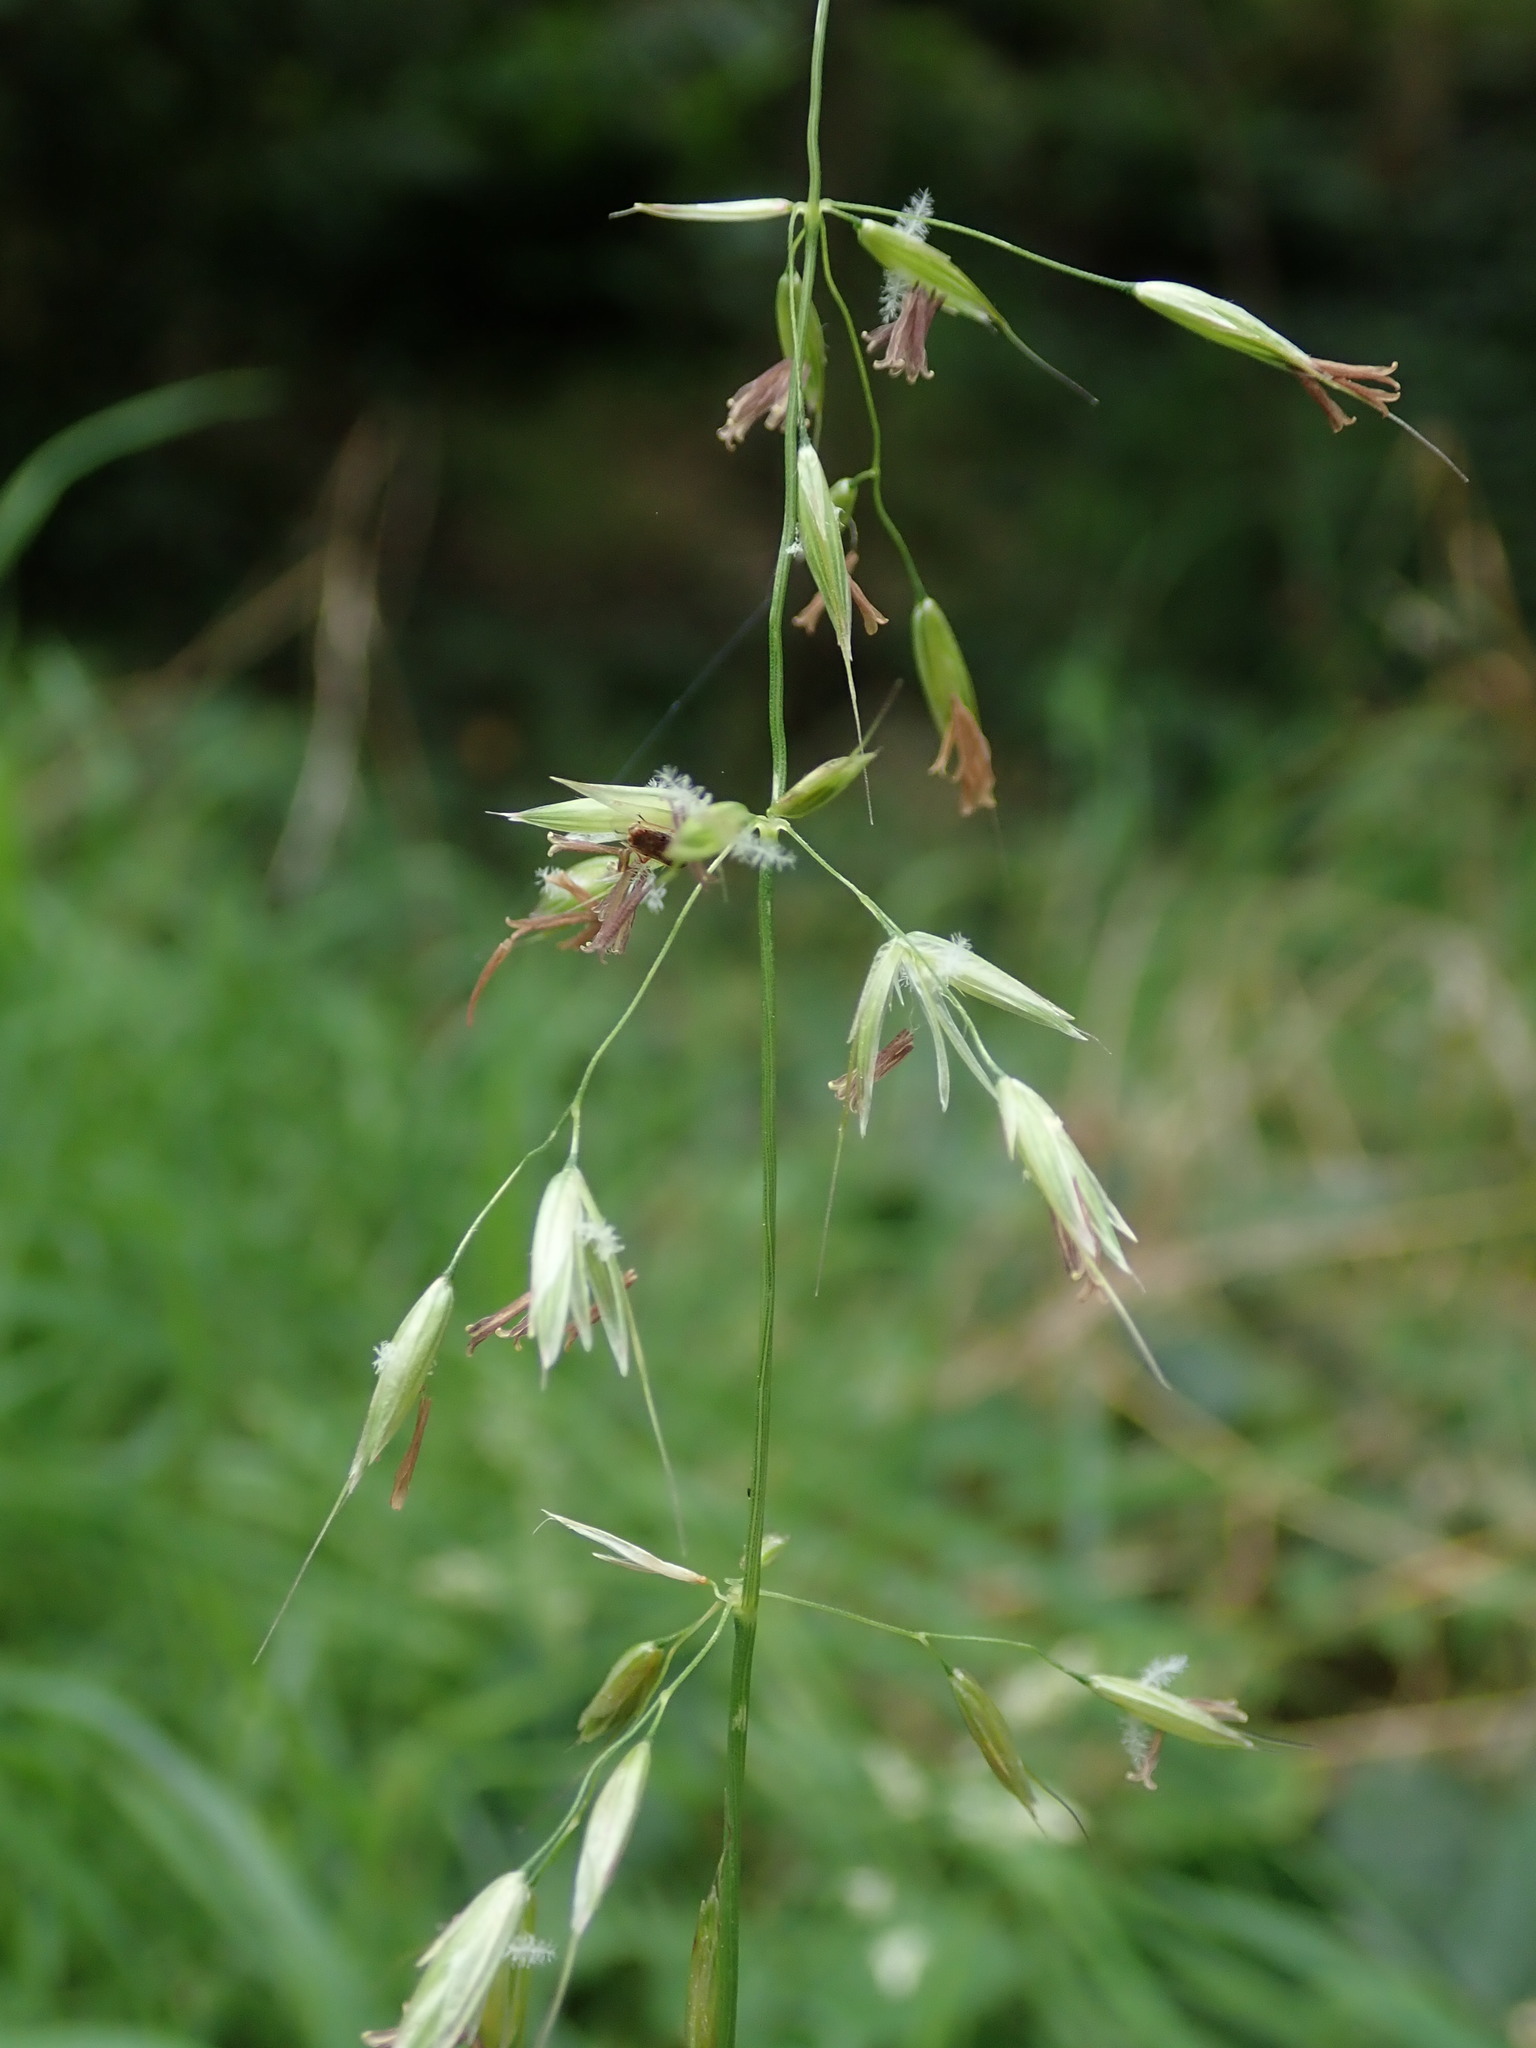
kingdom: Plantae
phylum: Tracheophyta
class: Liliopsida
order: Poales
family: Poaceae
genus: Arrhenatherum
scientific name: Arrhenatherum elatius
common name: Tall oatgrass
